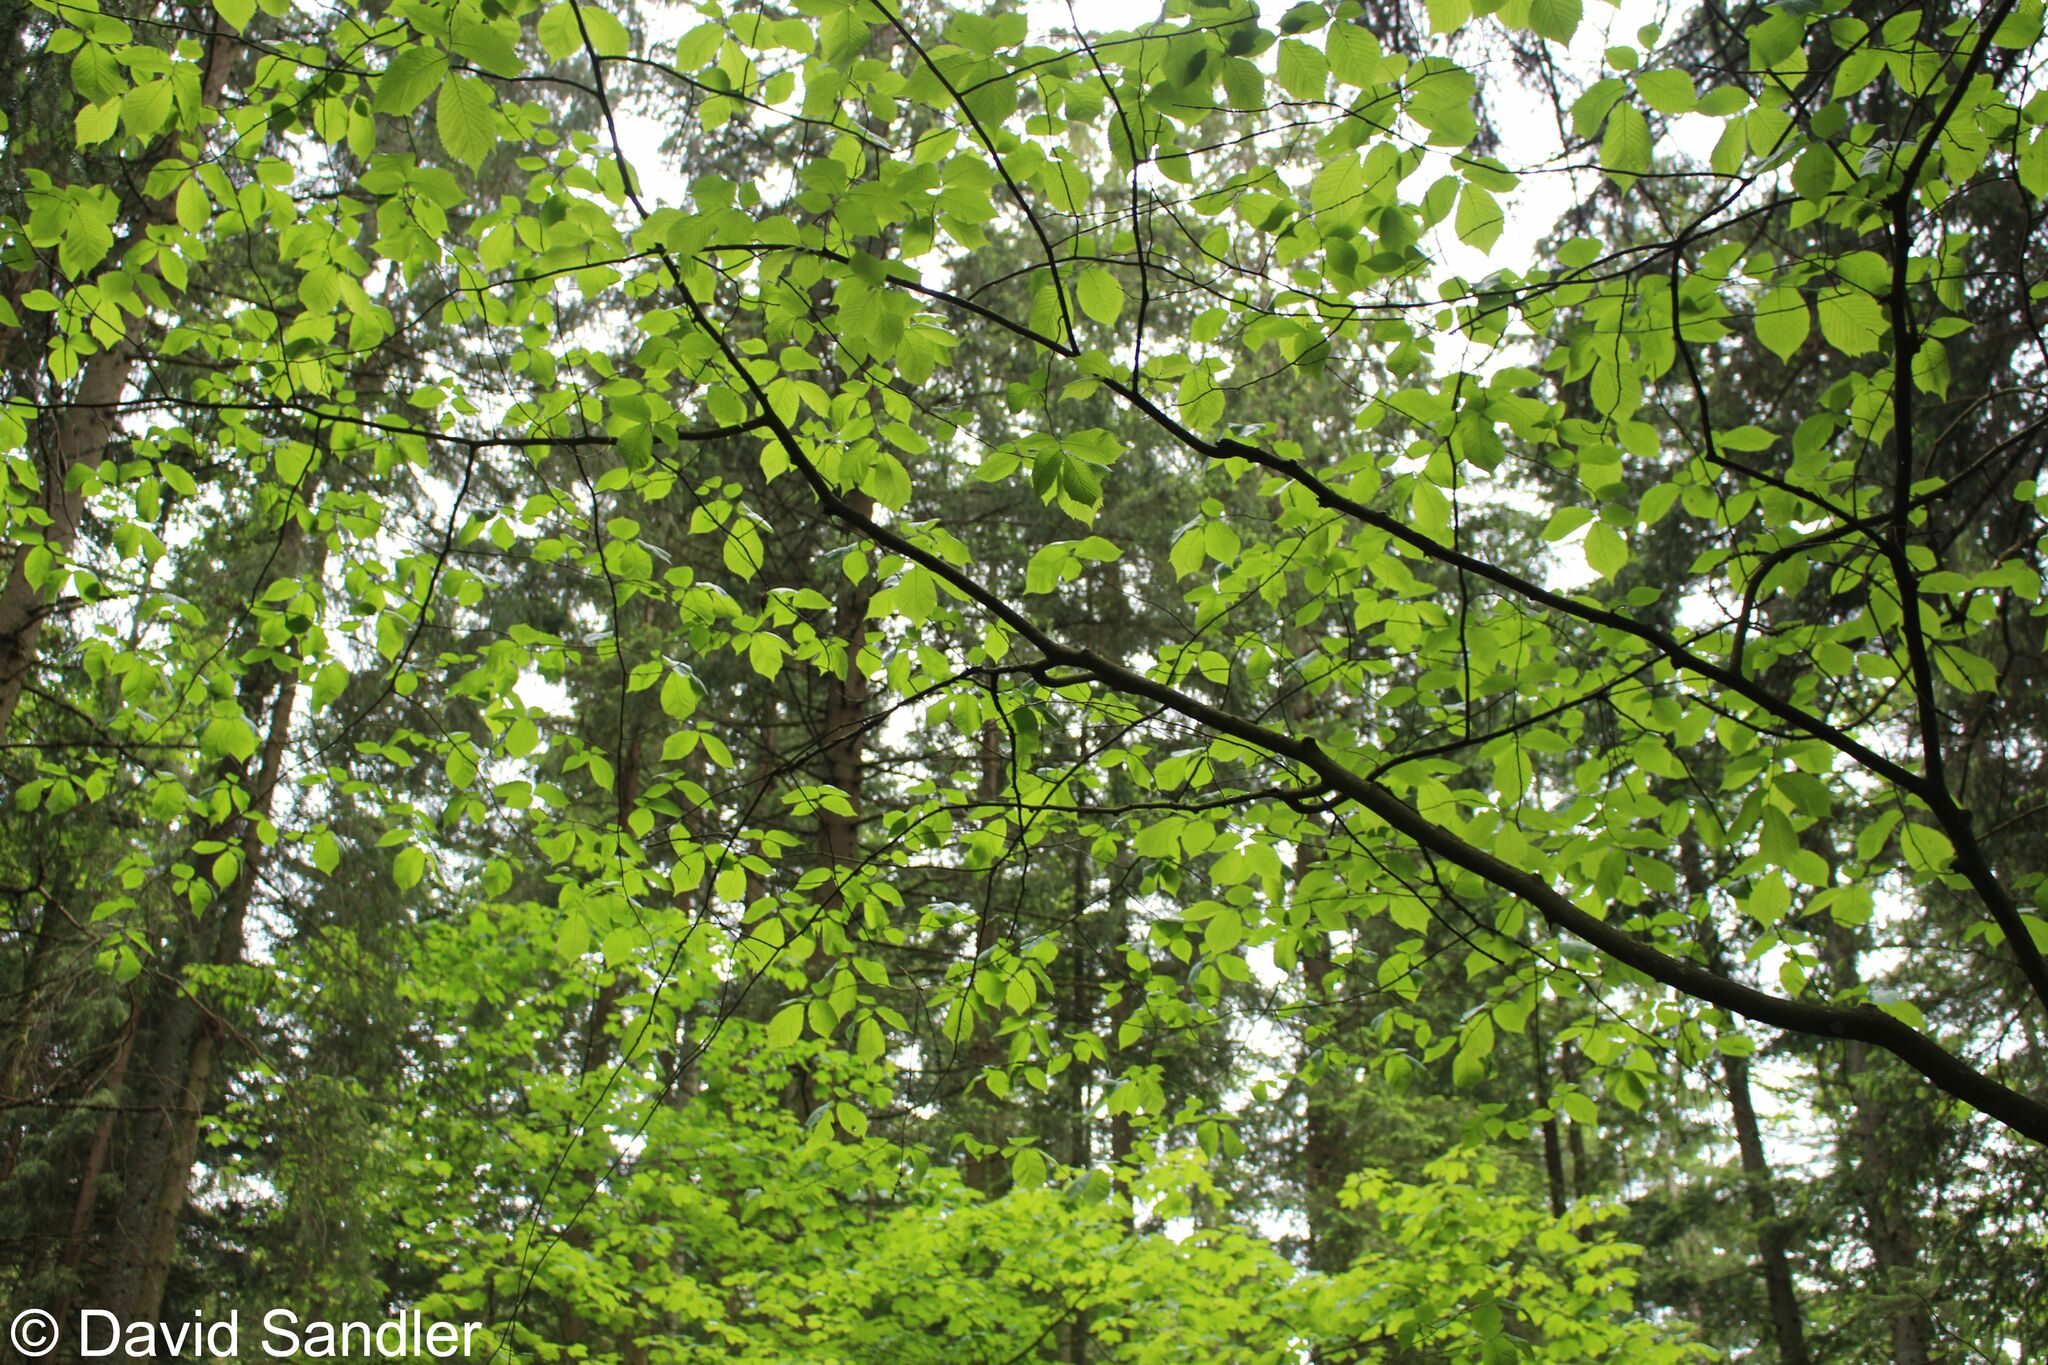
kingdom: Plantae
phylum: Tracheophyta
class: Magnoliopsida
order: Rosales
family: Ulmaceae
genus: Ulmus
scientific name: Ulmus glabra
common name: Wych elm
